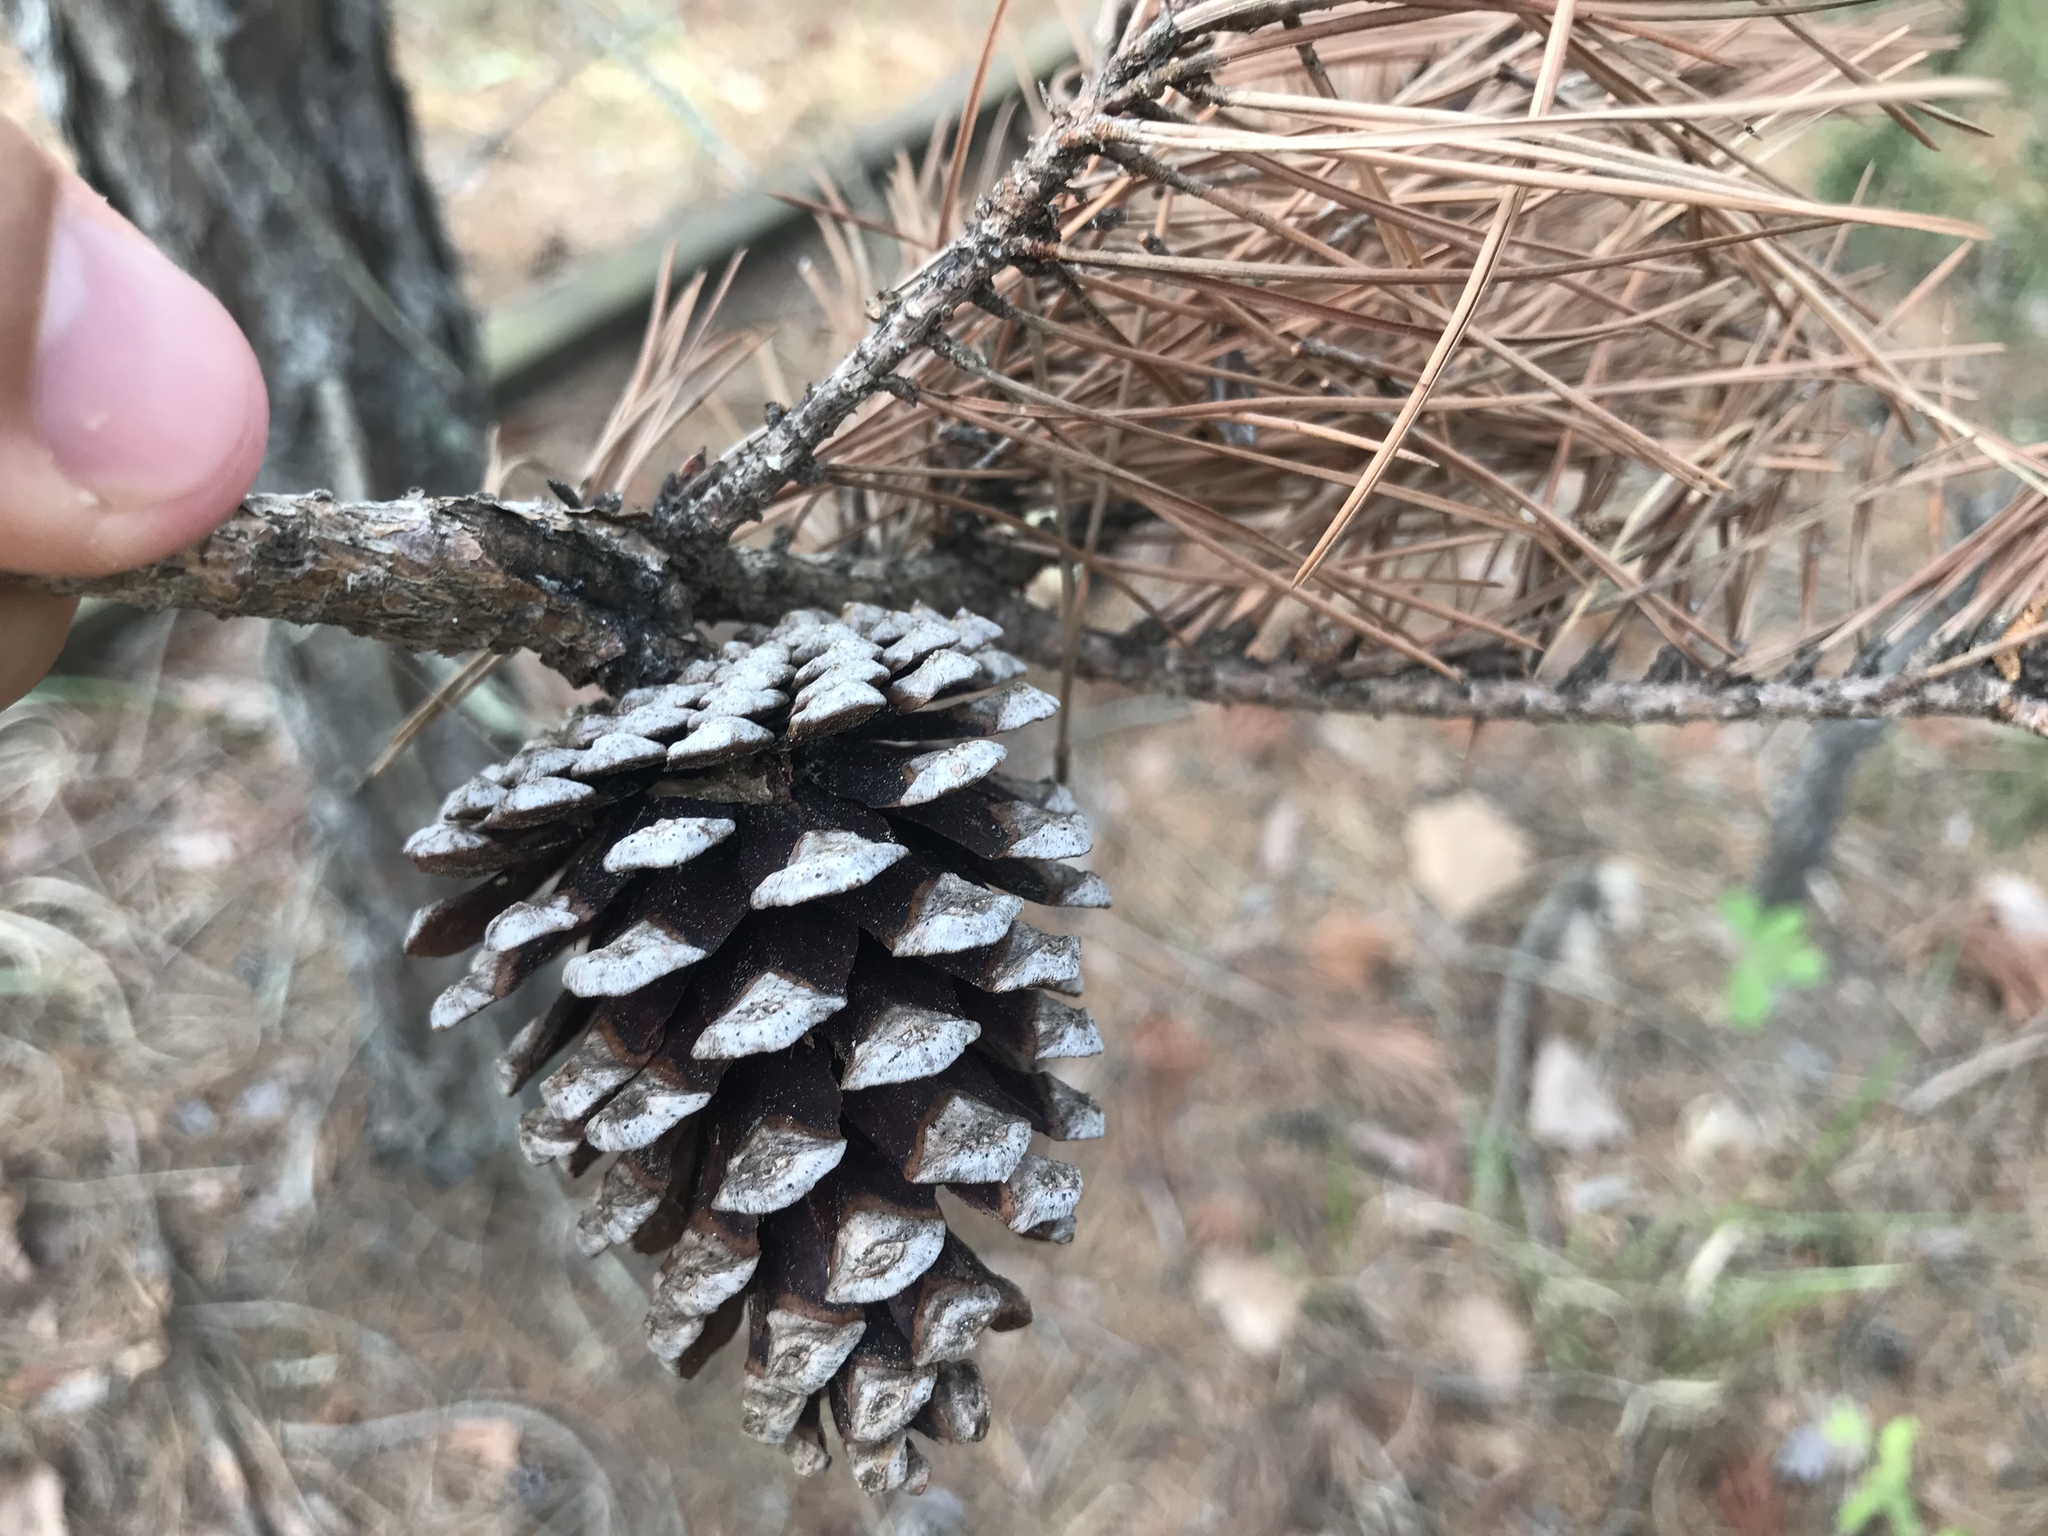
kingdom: Plantae
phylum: Tracheophyta
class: Pinopsida
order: Pinales
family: Pinaceae
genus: Pinus
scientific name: Pinus echinata
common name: Shortleaf pine
